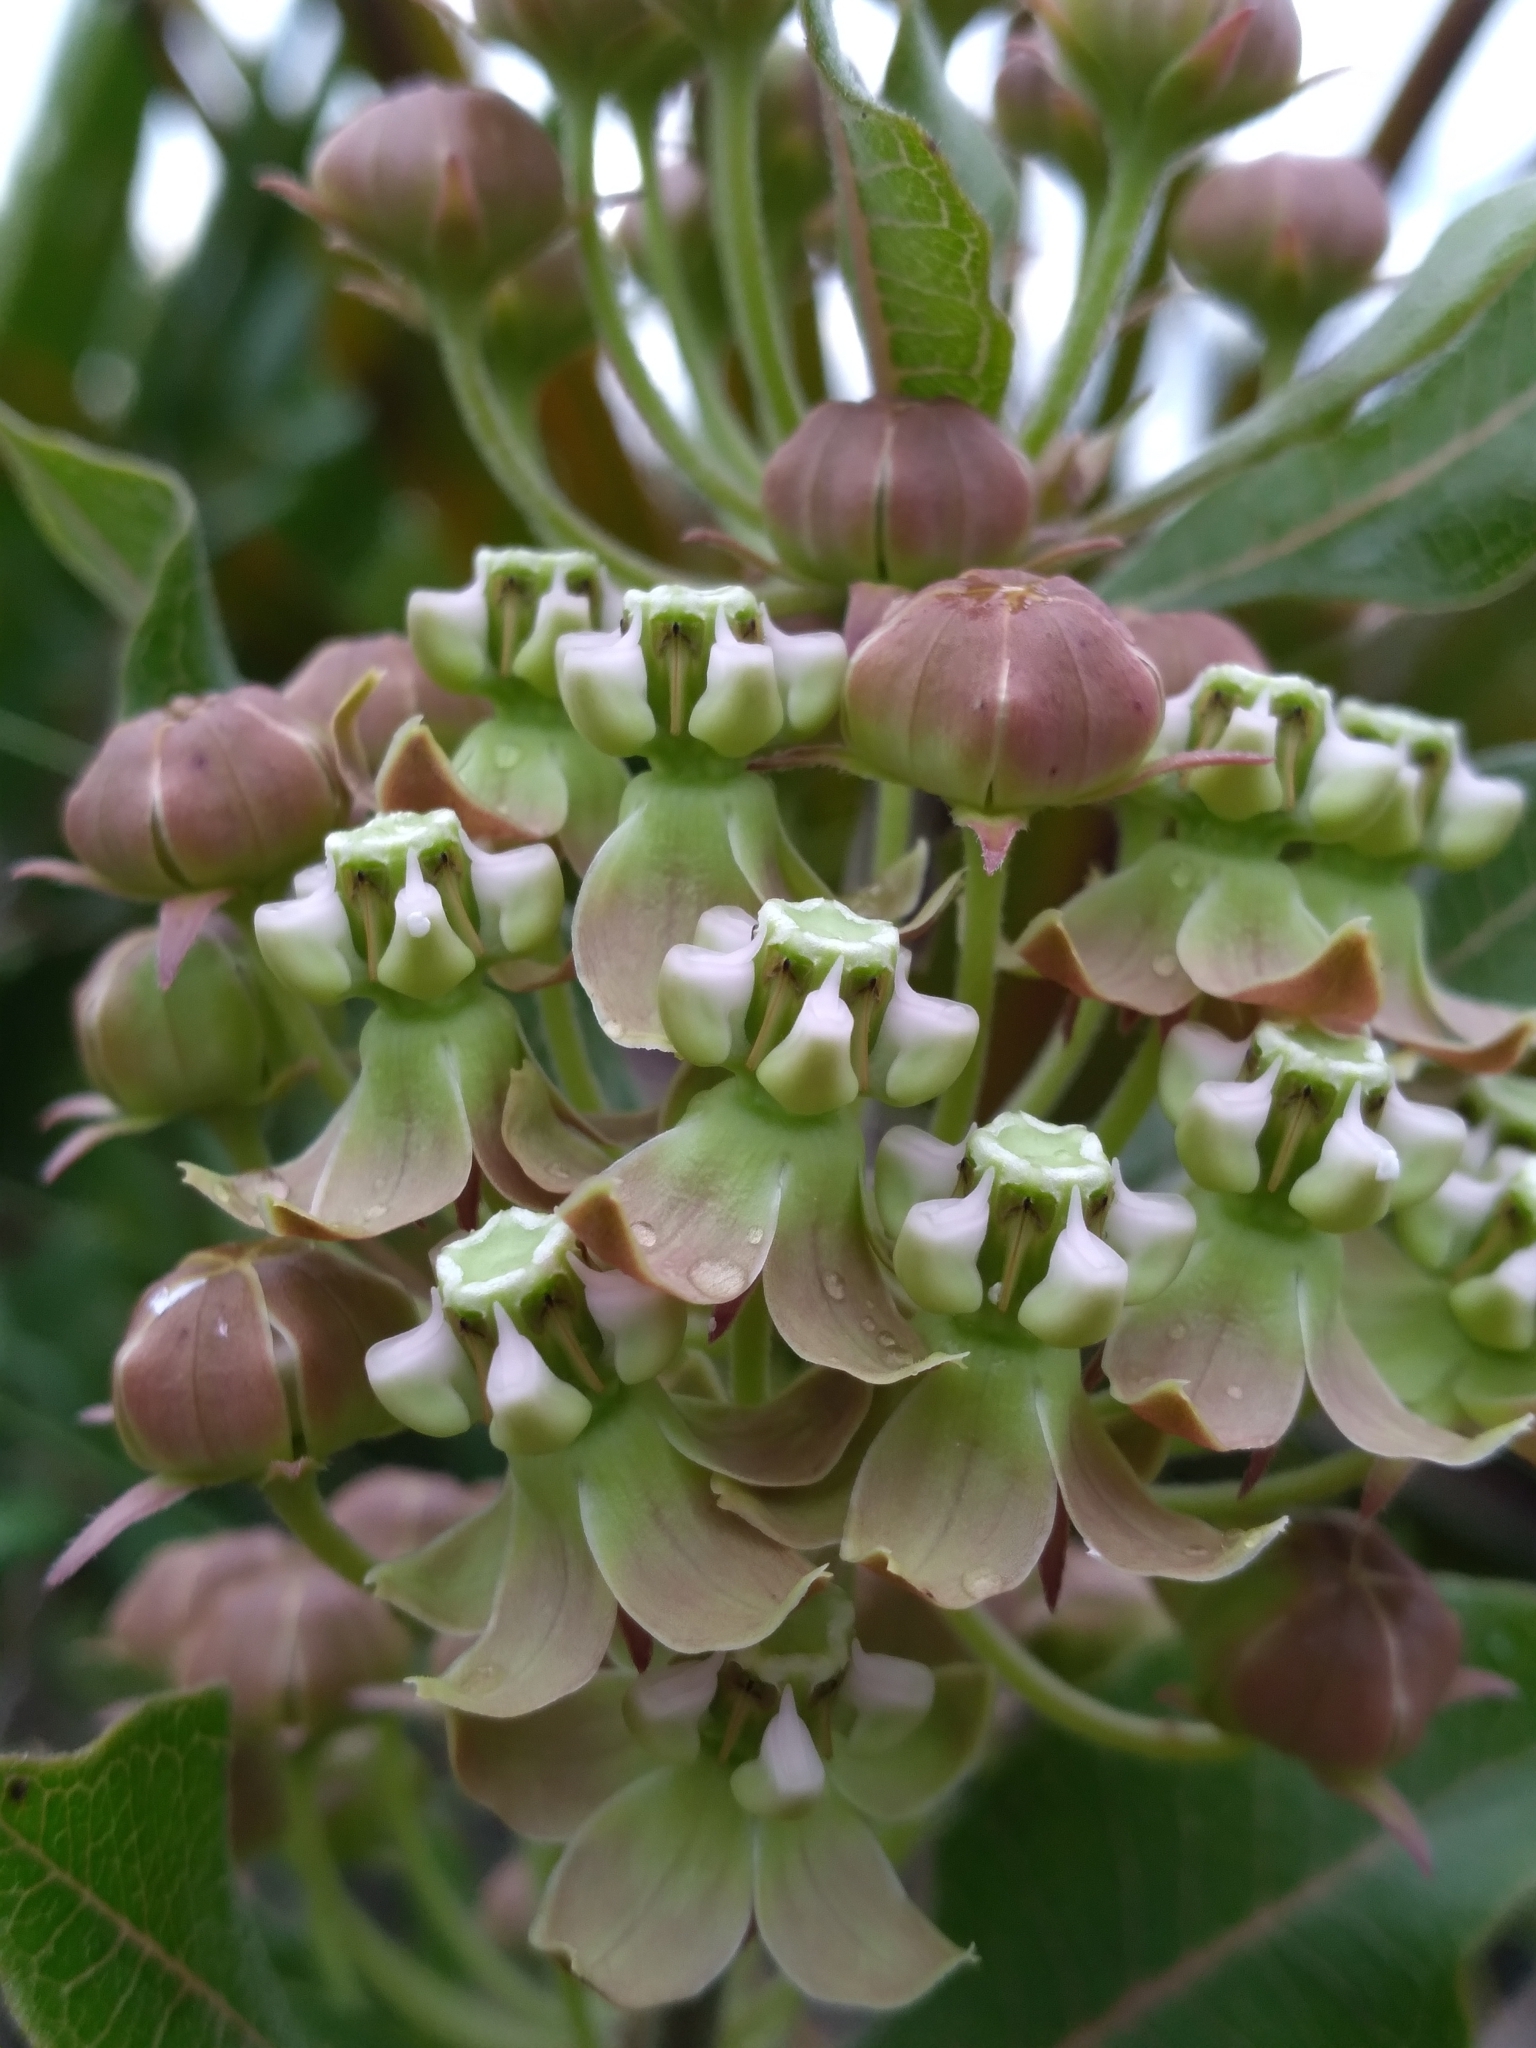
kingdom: Plantae
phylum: Tracheophyta
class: Magnoliopsida
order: Gentianales
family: Apocynaceae
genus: Asclepias
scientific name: Asclepias tomentosa
